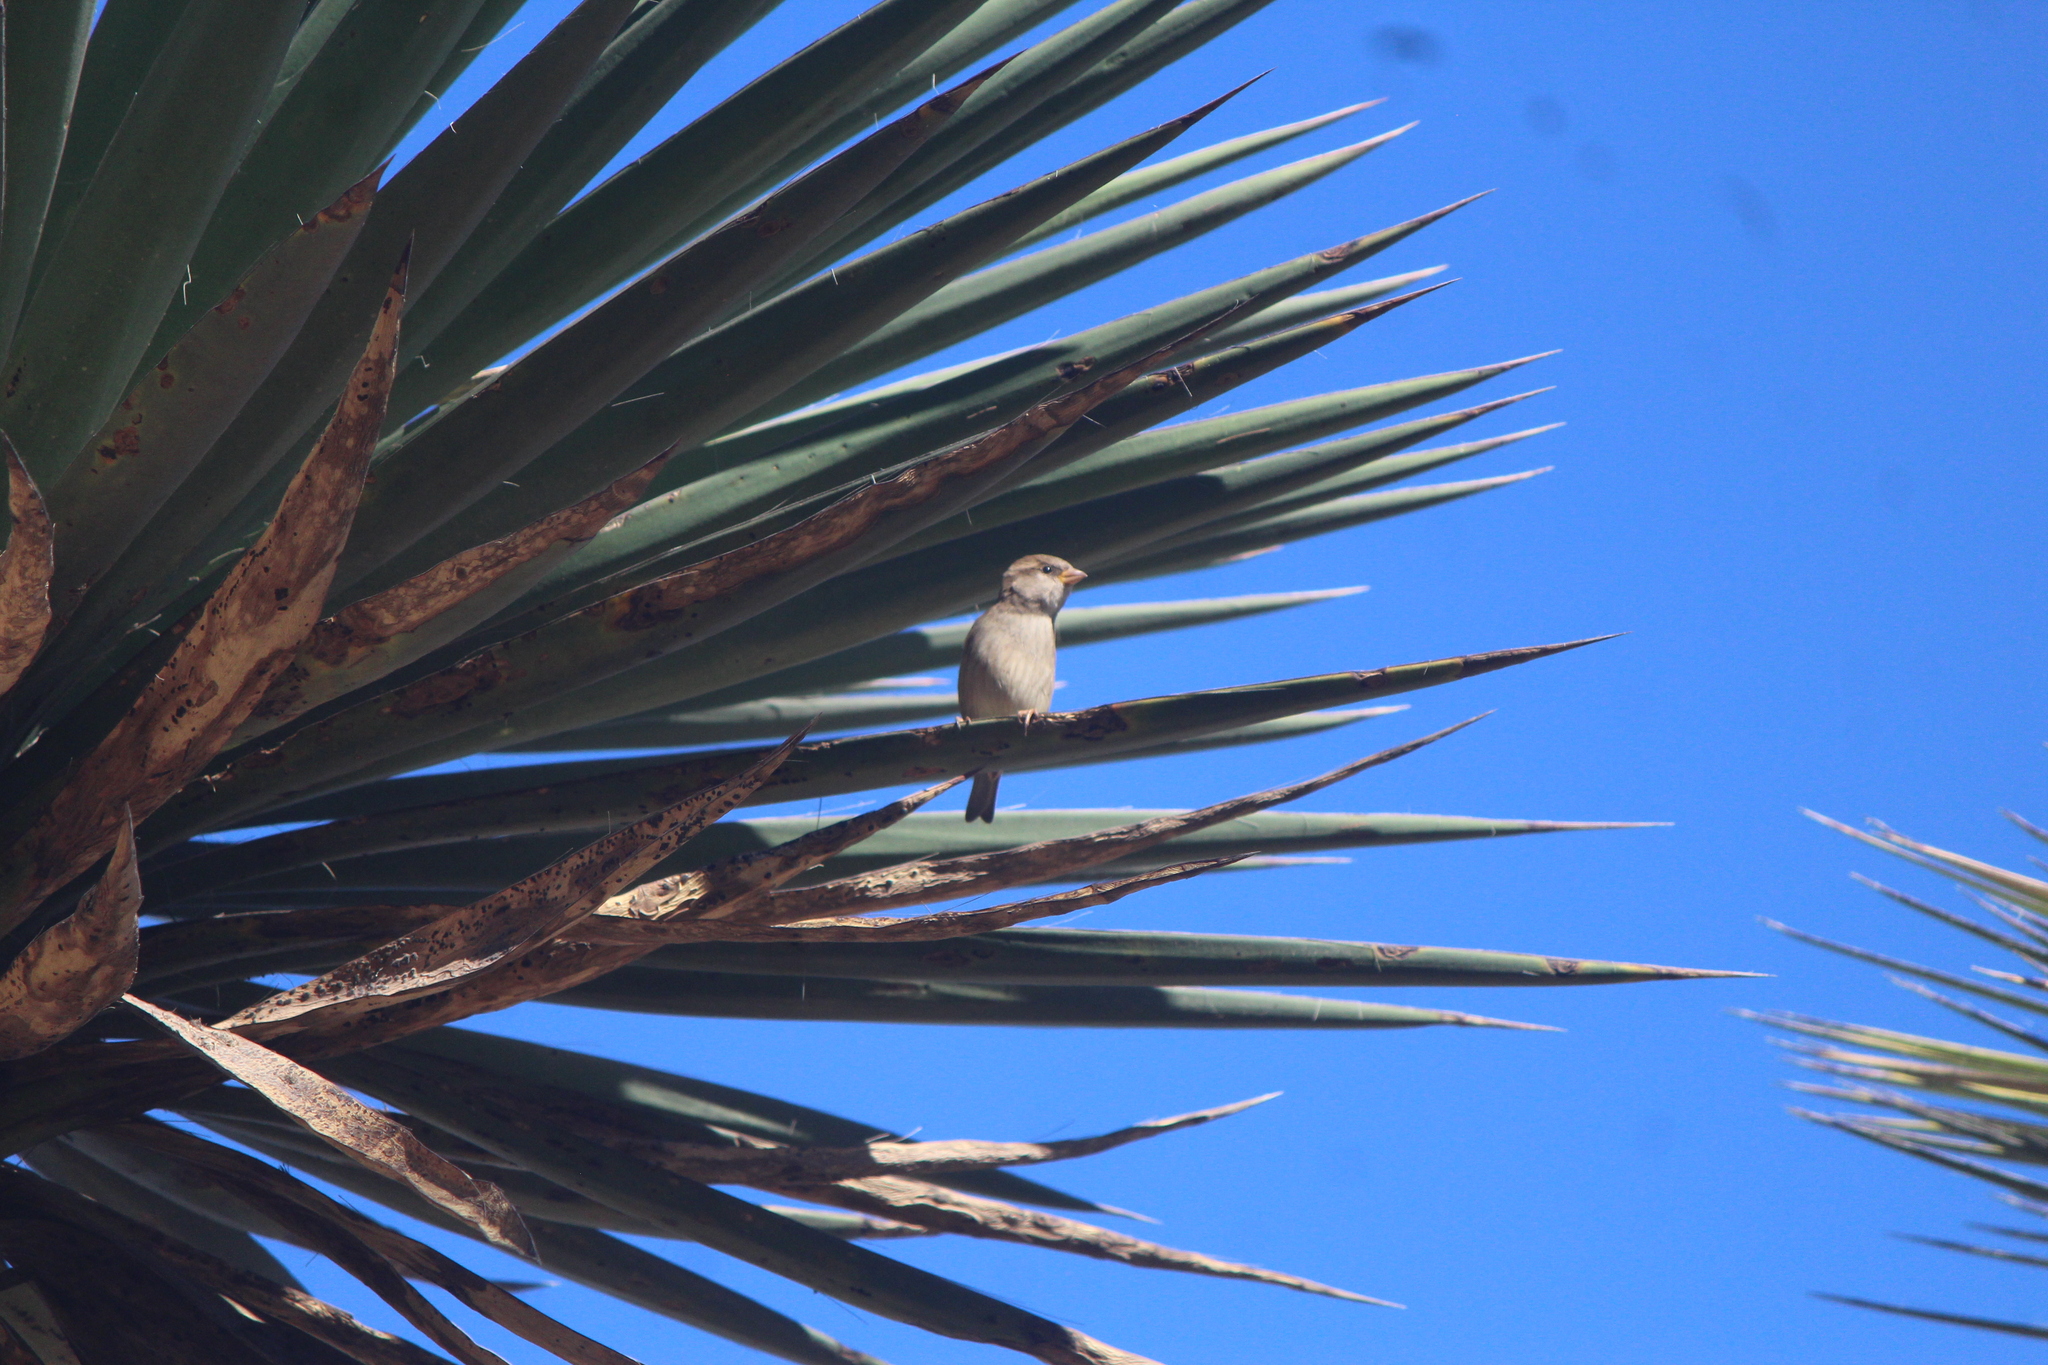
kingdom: Animalia
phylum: Chordata
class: Aves
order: Passeriformes
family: Passeridae
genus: Passer
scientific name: Passer domesticus
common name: House sparrow
